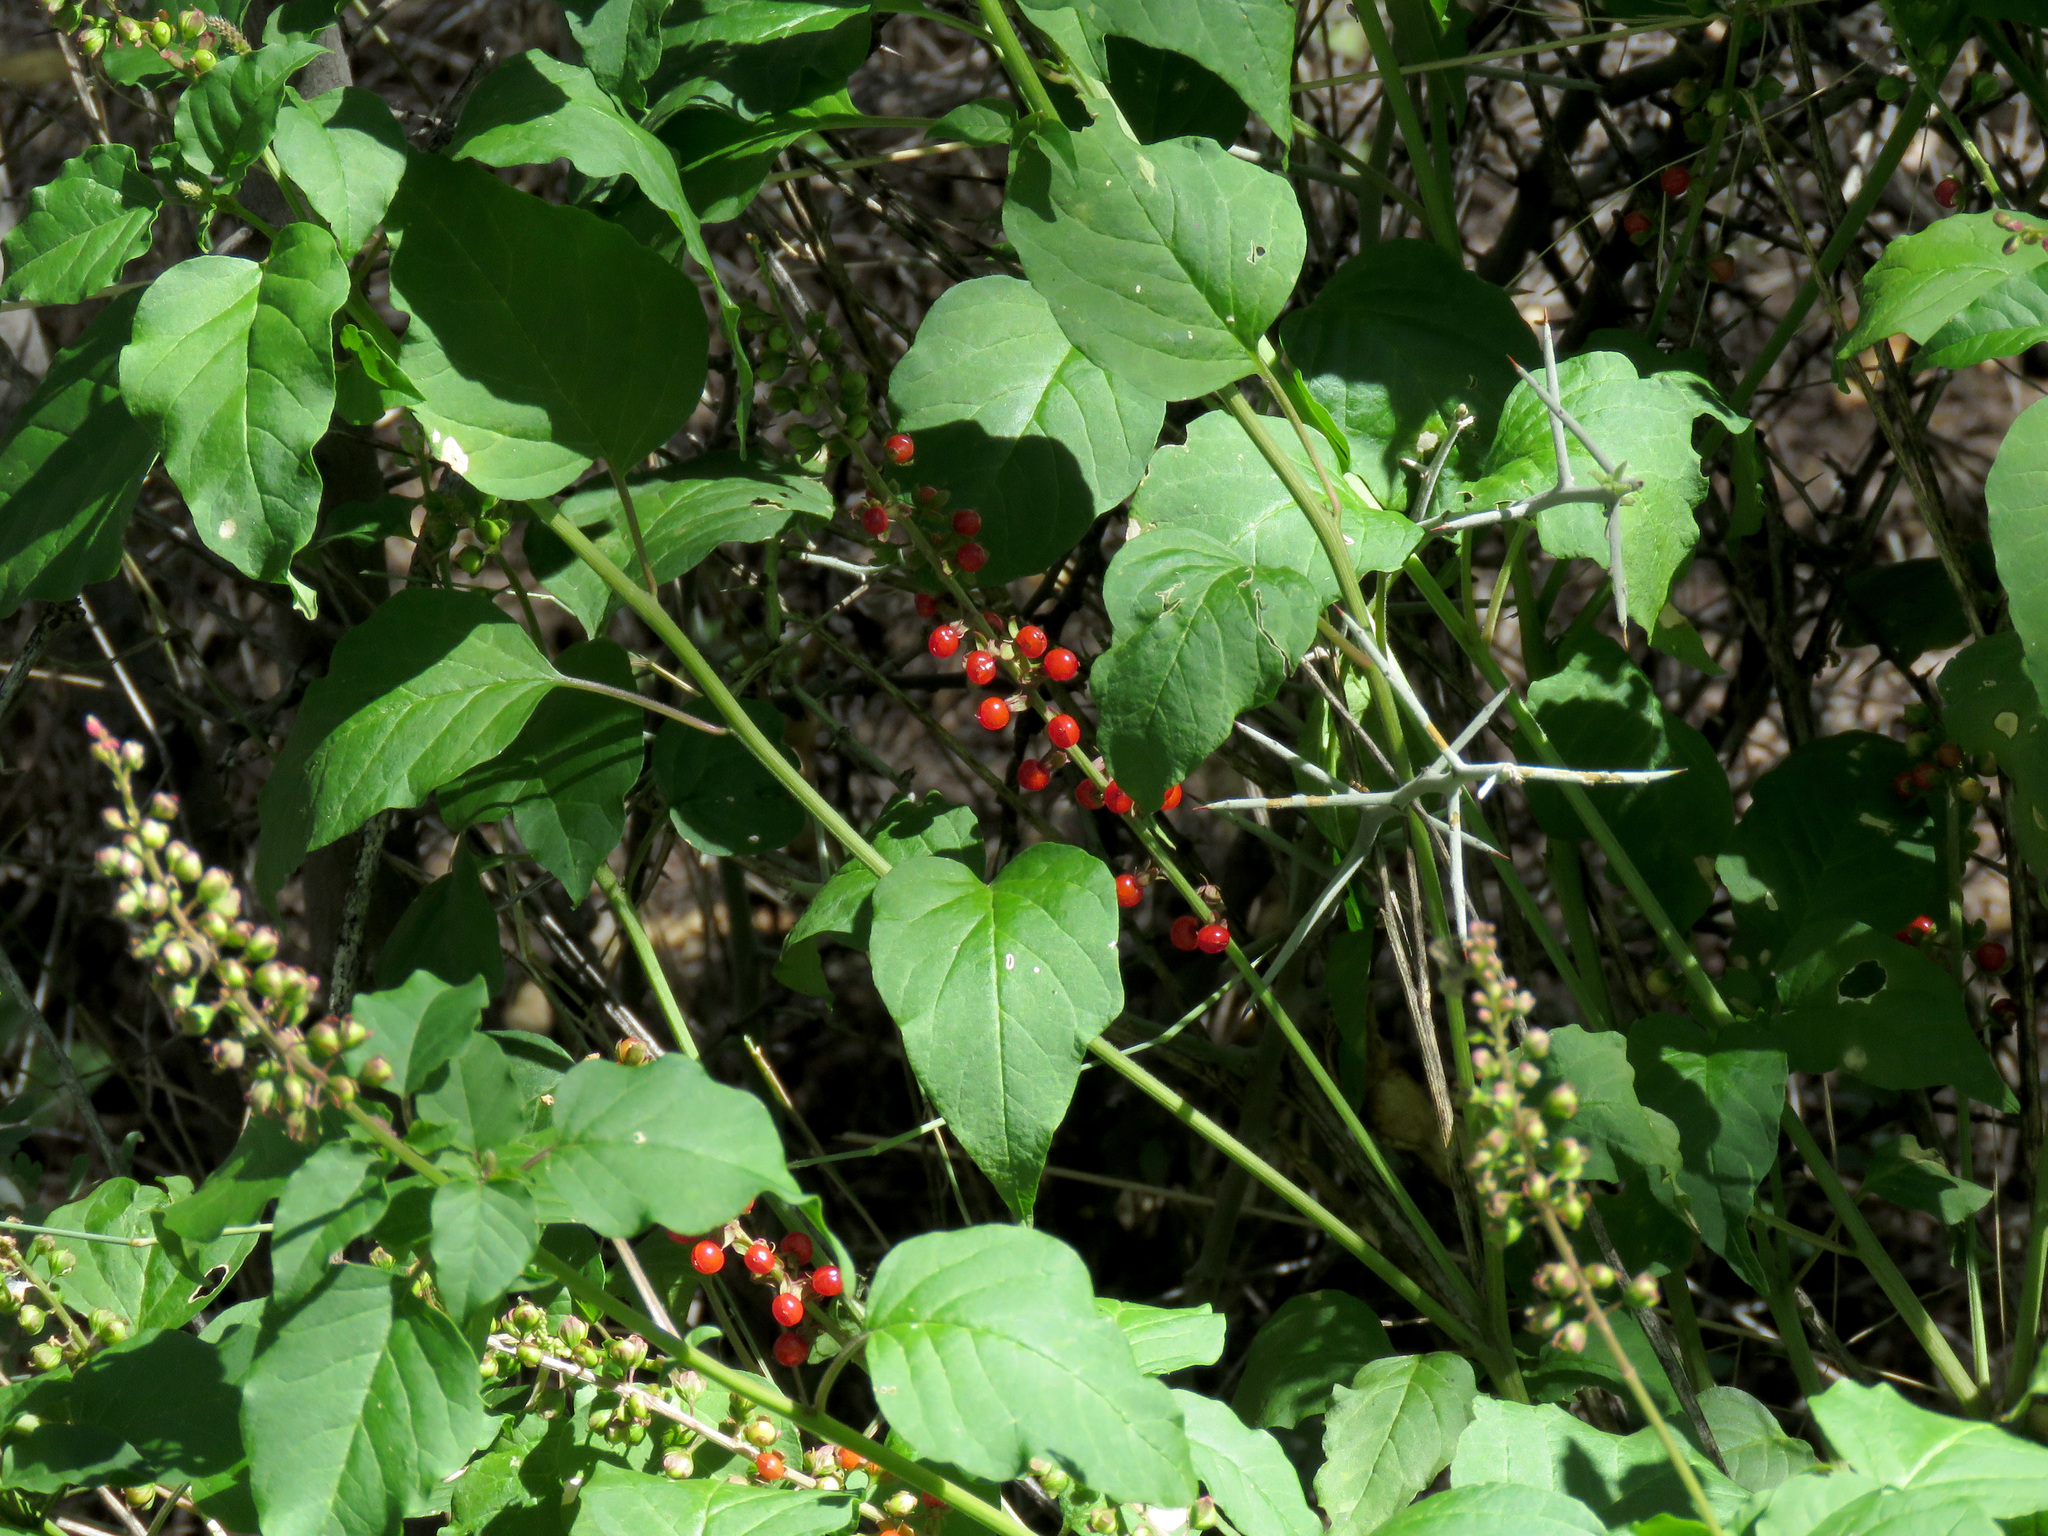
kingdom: Plantae
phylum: Tracheophyta
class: Magnoliopsida
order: Caryophyllales
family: Phytolaccaceae
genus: Rivina
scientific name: Rivina humilis
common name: Rougeplant
